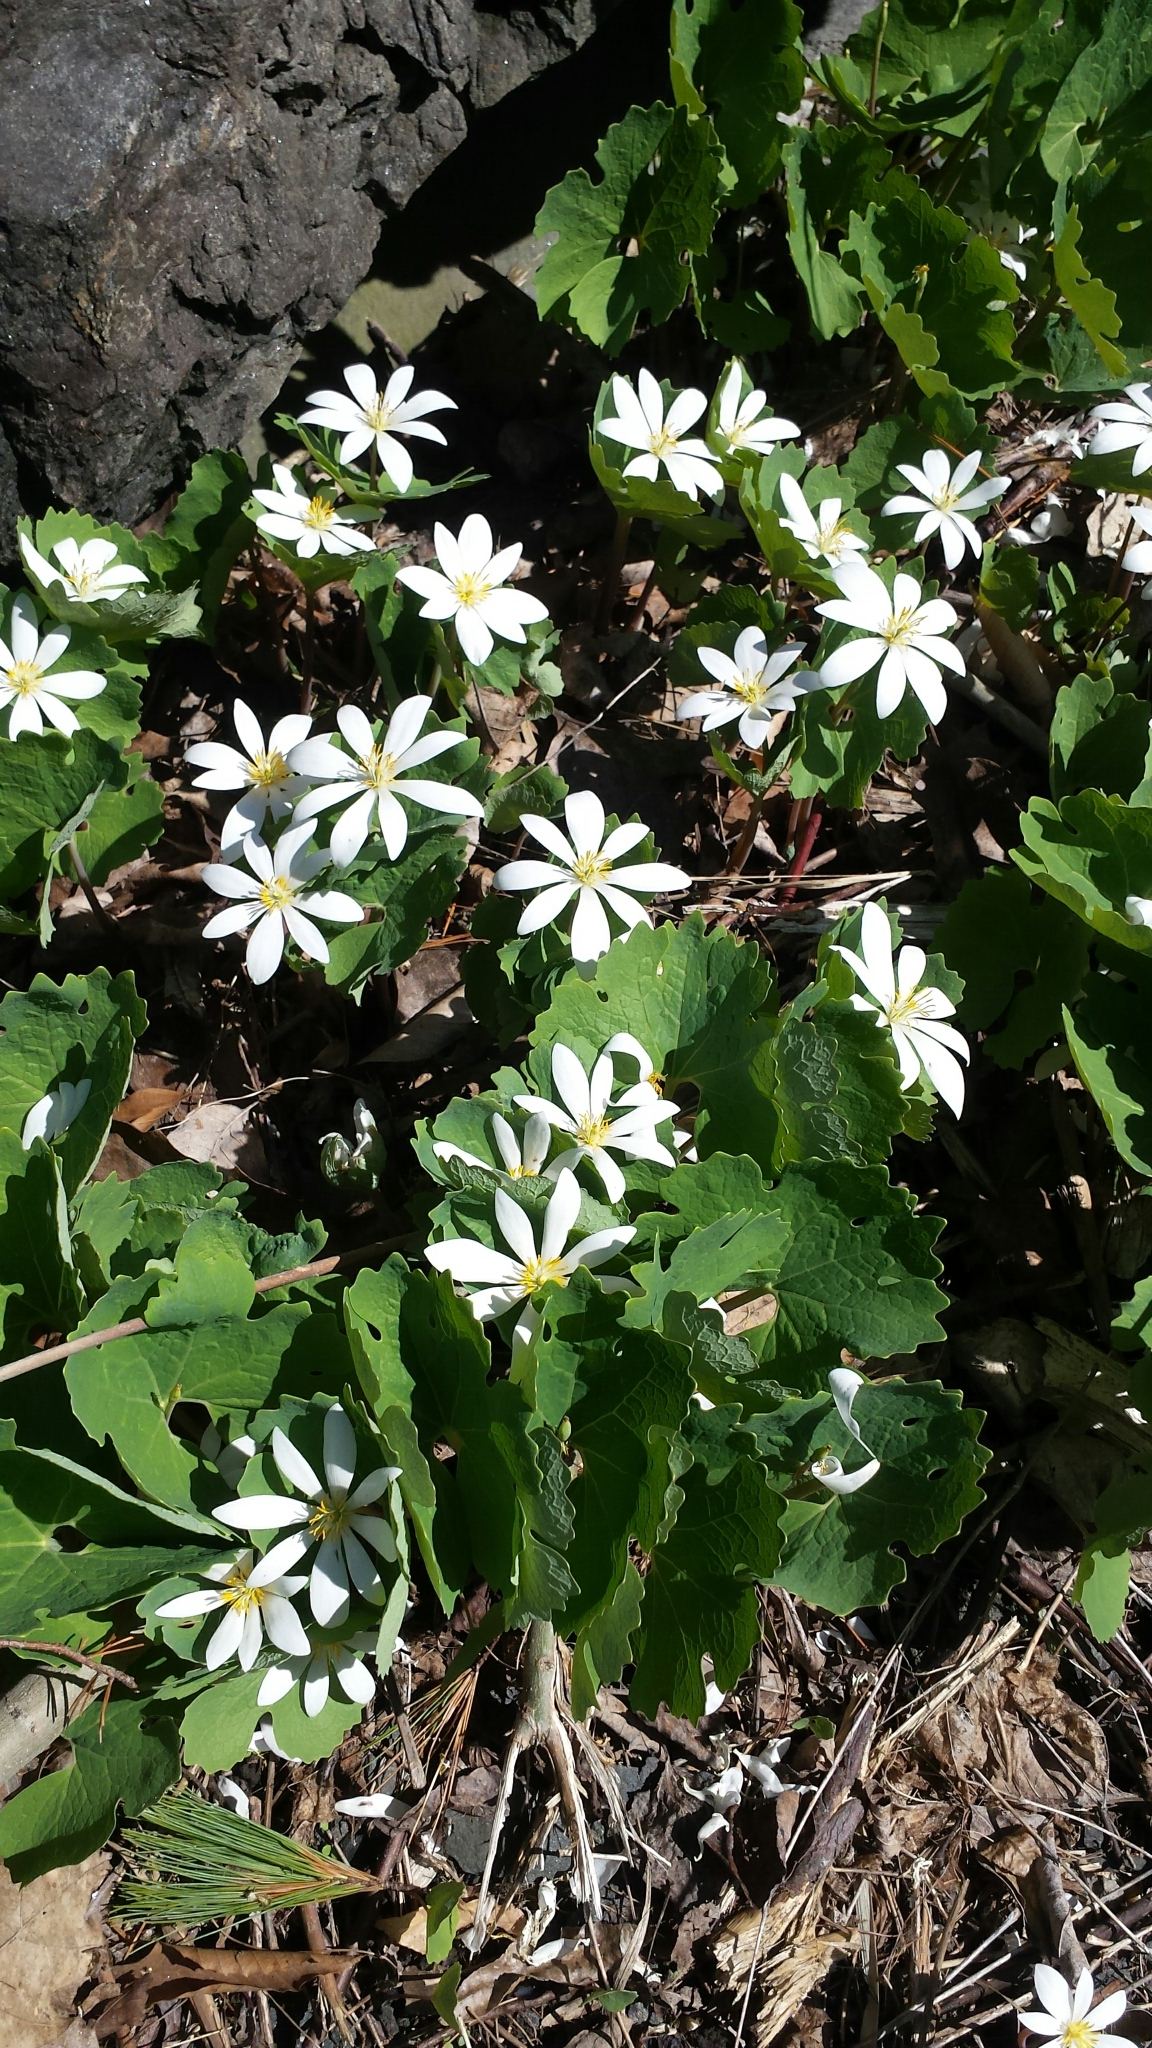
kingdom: Plantae
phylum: Tracheophyta
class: Magnoliopsida
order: Ranunculales
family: Papaveraceae
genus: Sanguinaria
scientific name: Sanguinaria canadensis
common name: Bloodroot
